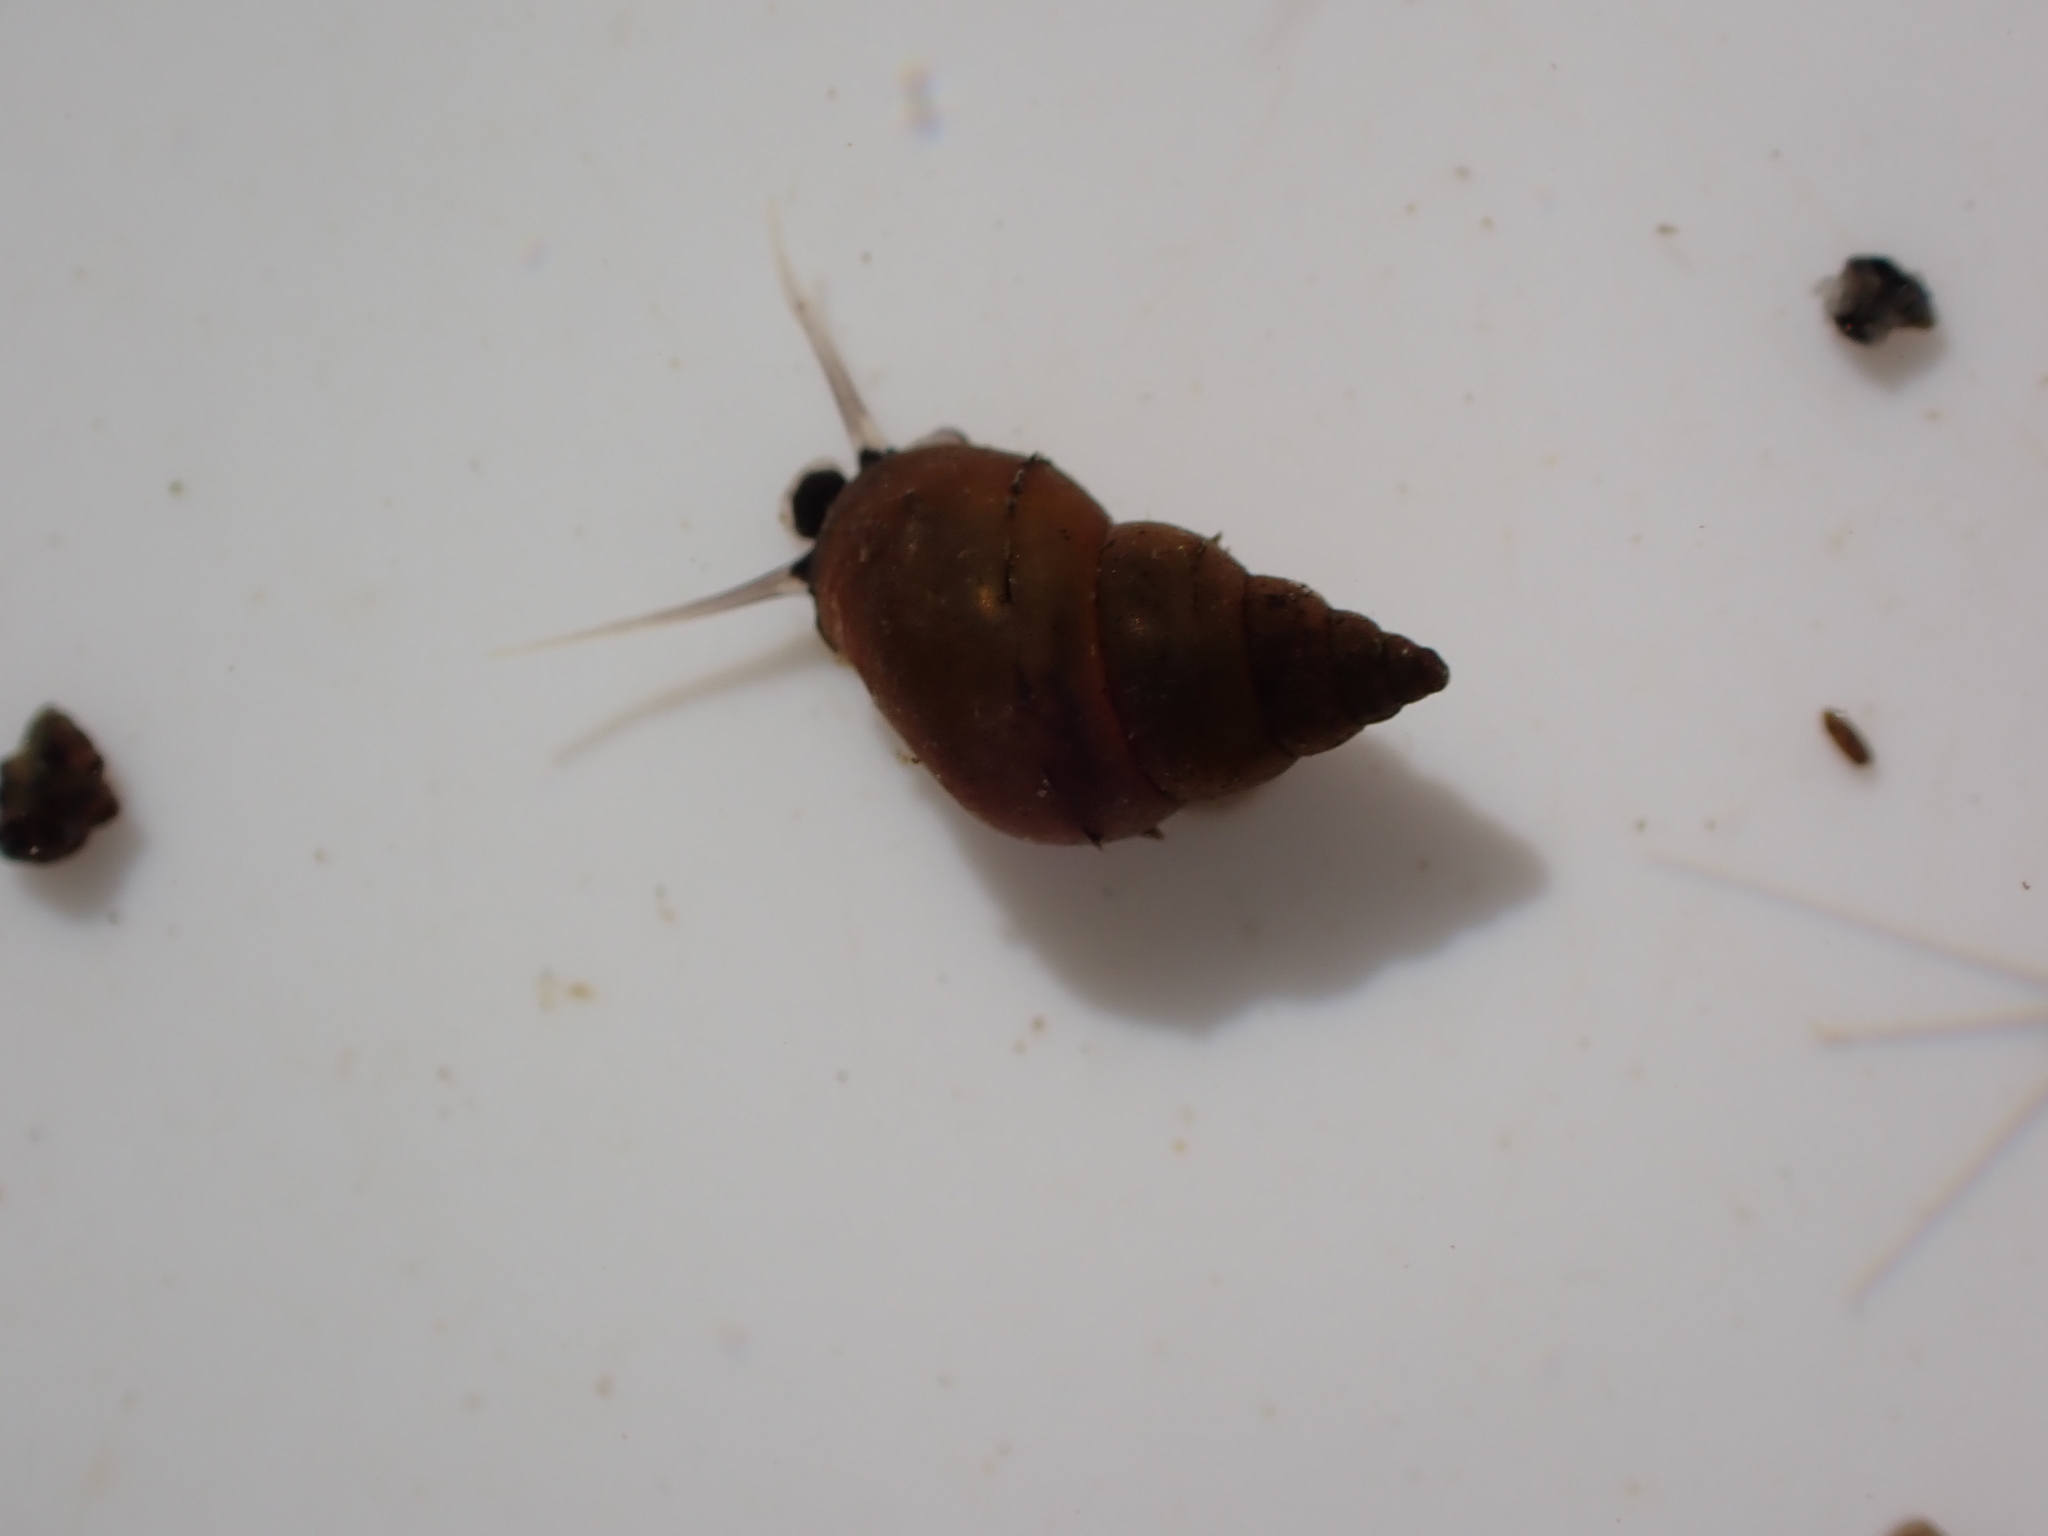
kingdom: Animalia
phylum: Mollusca
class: Gastropoda
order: Littorinimorpha
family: Tateidae
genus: Potamopyrgus
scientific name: Potamopyrgus antipodarum
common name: Jenkins' spire snail
